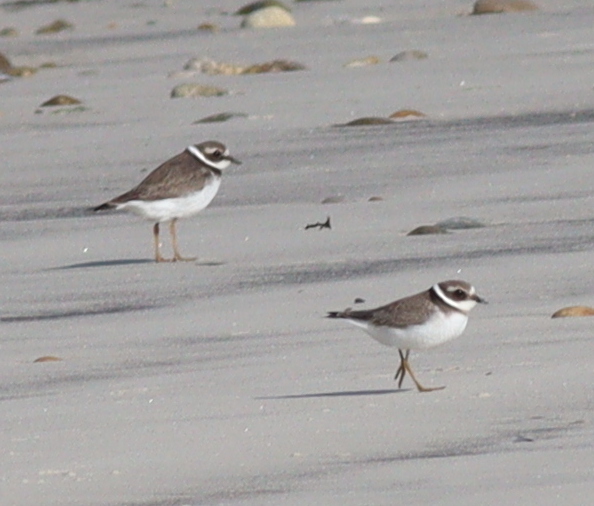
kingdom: Animalia
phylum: Chordata
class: Aves
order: Charadriiformes
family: Charadriidae
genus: Charadrius
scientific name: Charadrius hiaticula
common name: Common ringed plover
